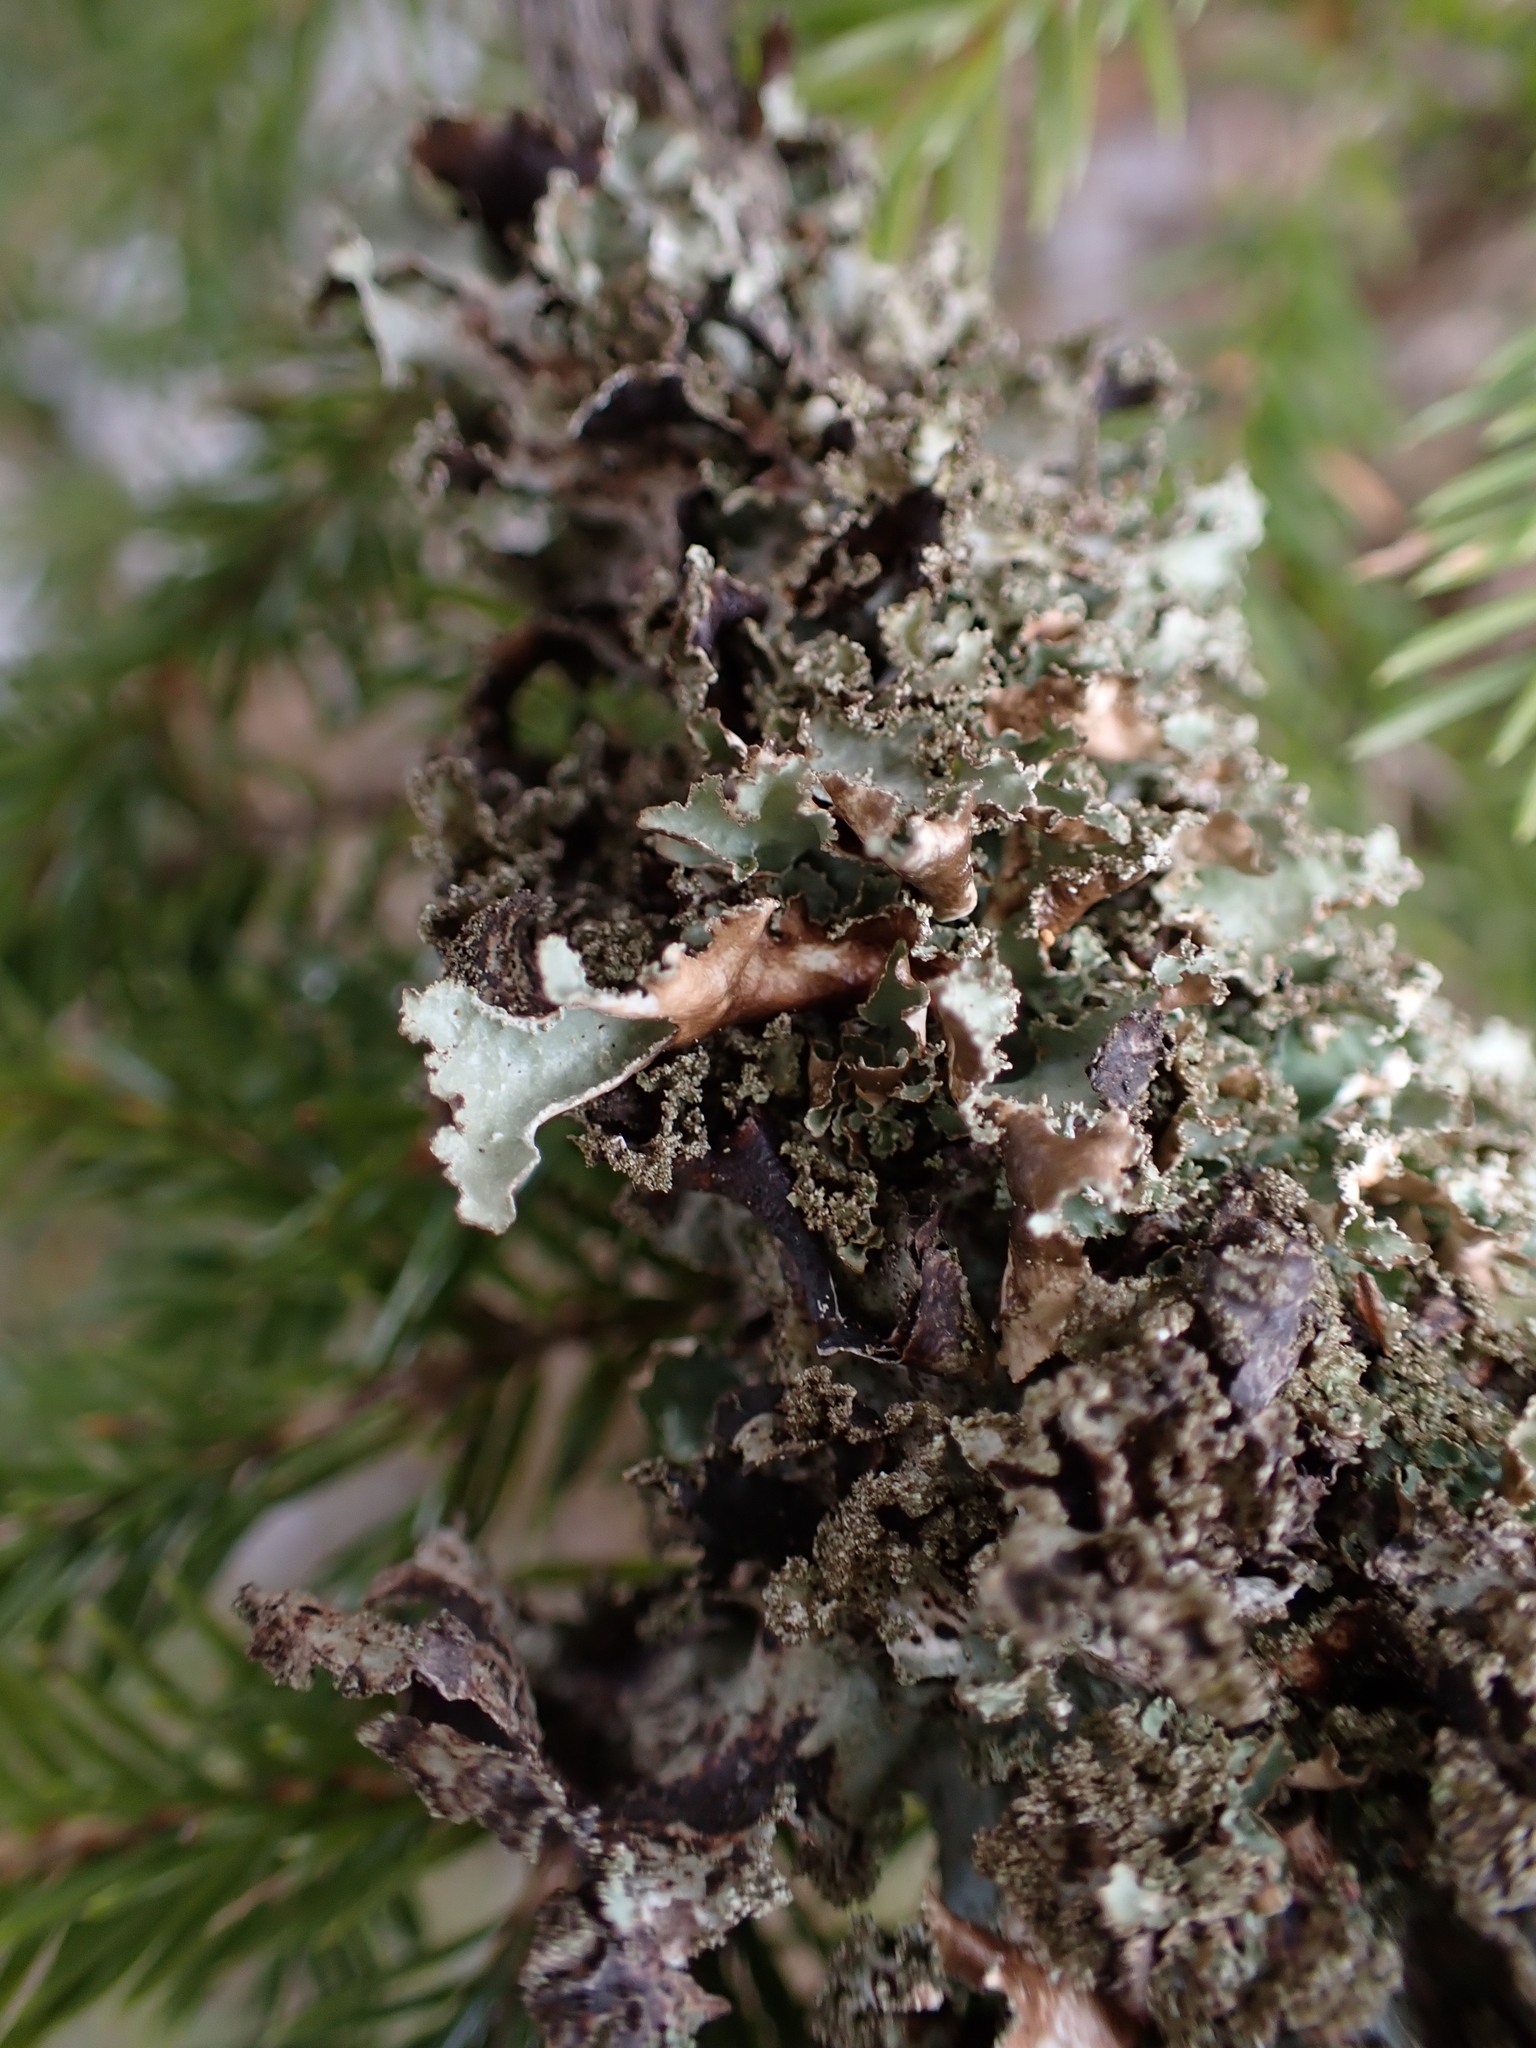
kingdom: Fungi
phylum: Ascomycota
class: Lecanoromycetes
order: Lecanorales
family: Parmeliaceae
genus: Platismatia
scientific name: Platismatia glauca
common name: Varied rag lichen
